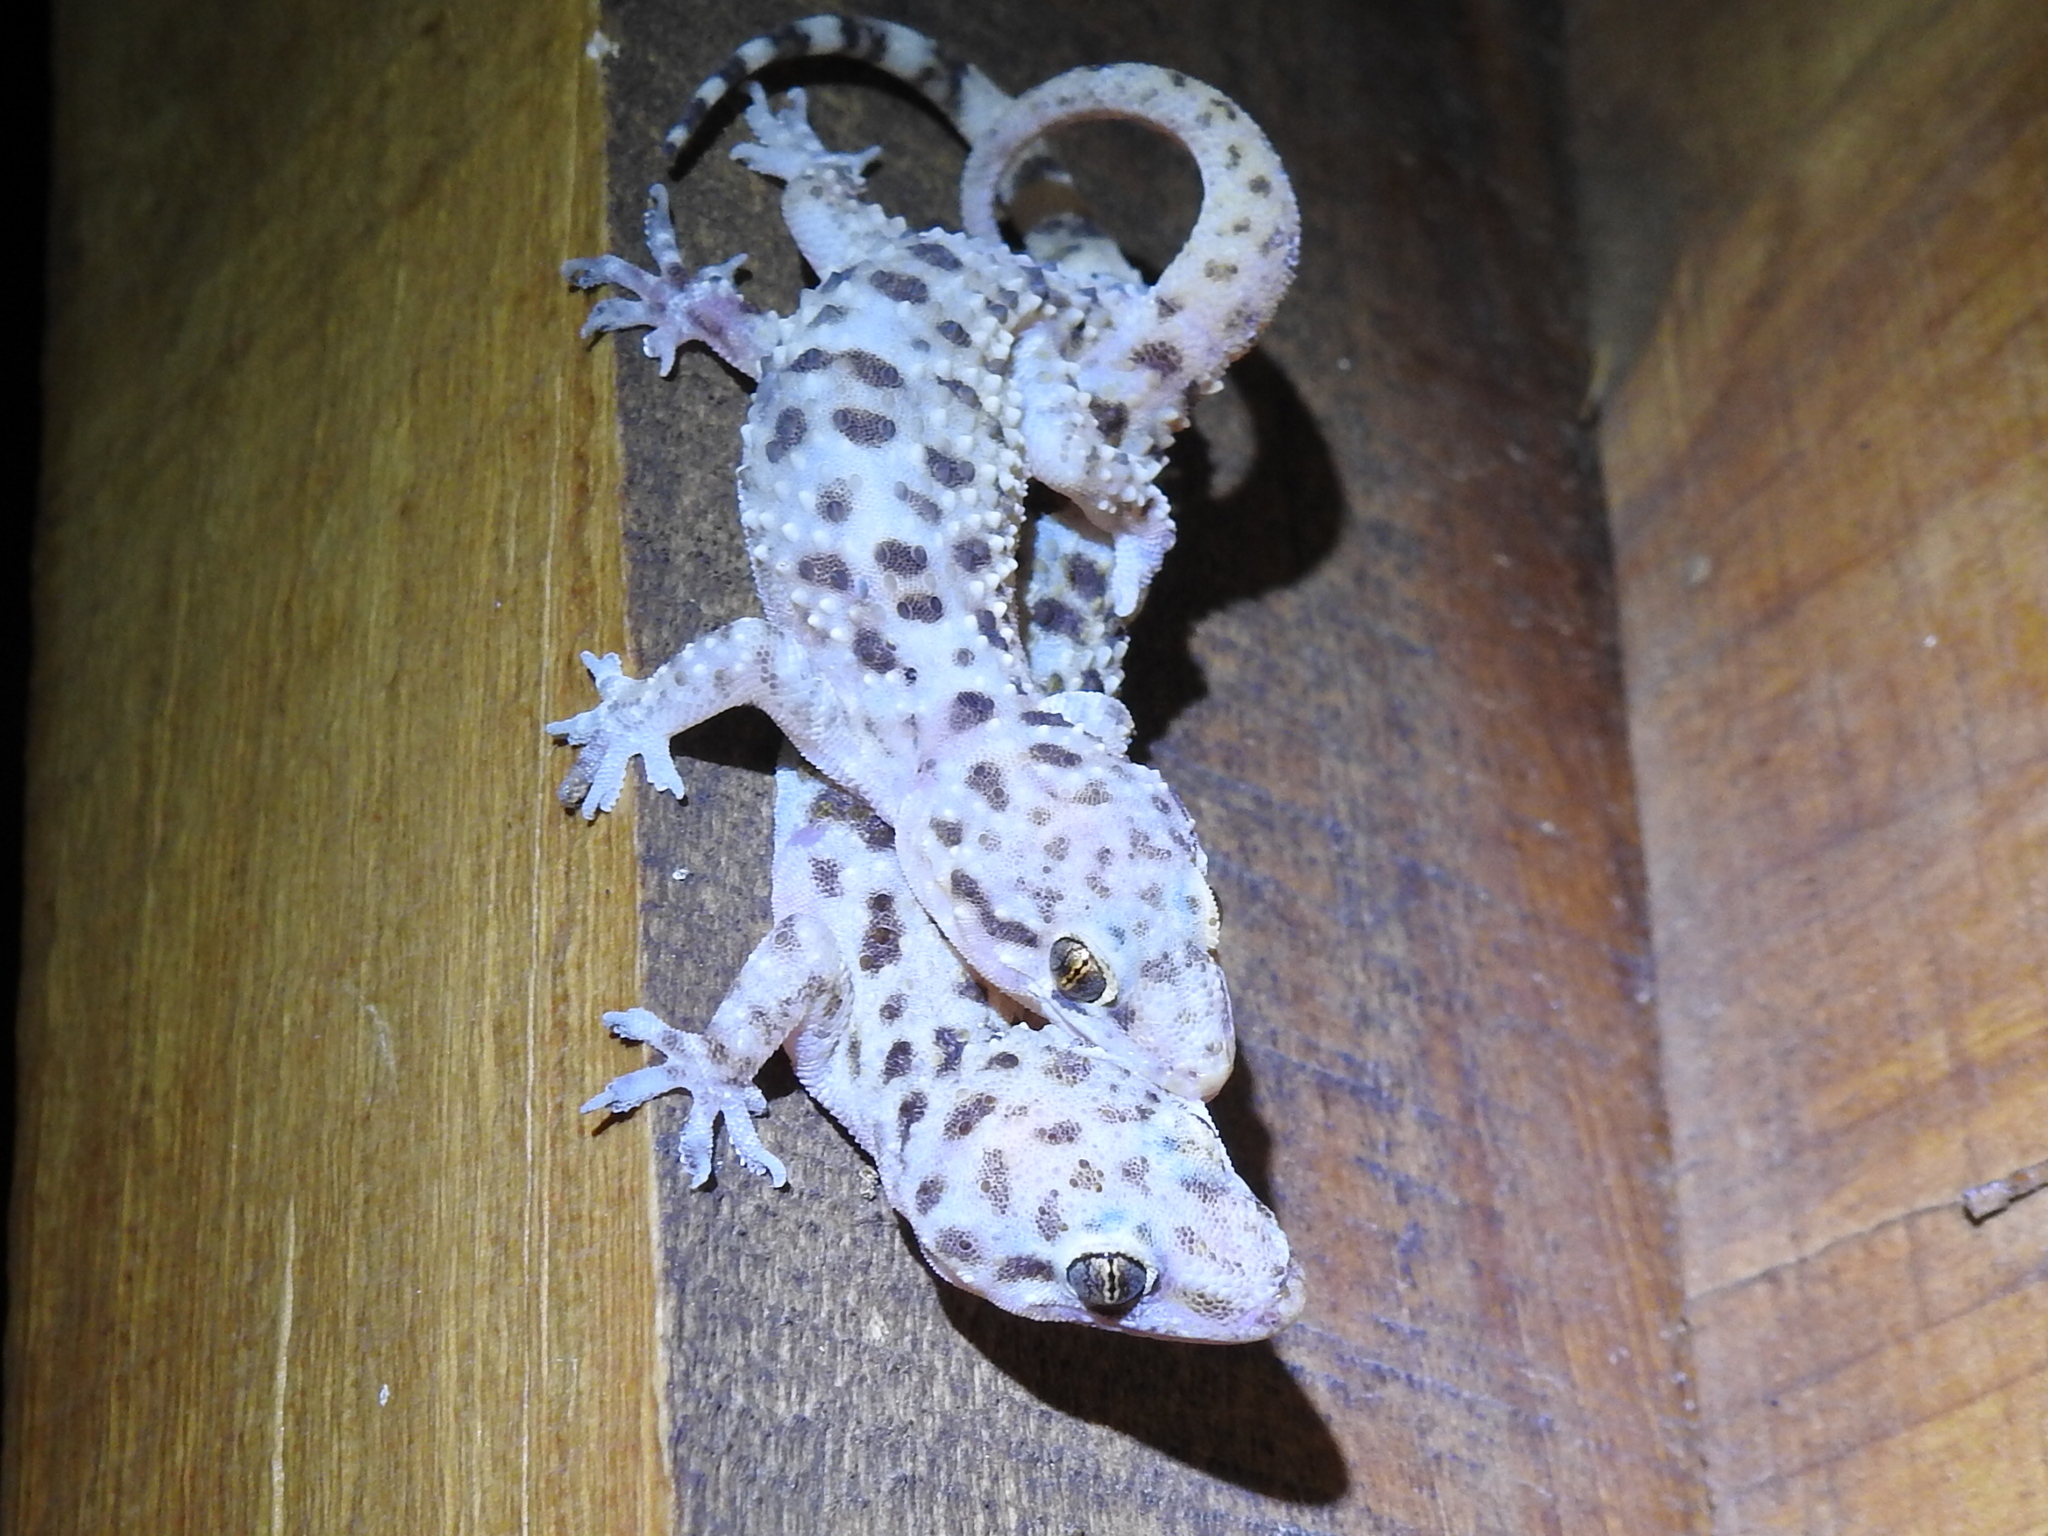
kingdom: Animalia
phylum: Chordata
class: Squamata
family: Gekkonidae
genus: Hemidactylus
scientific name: Hemidactylus turcicus
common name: Turkish gecko
